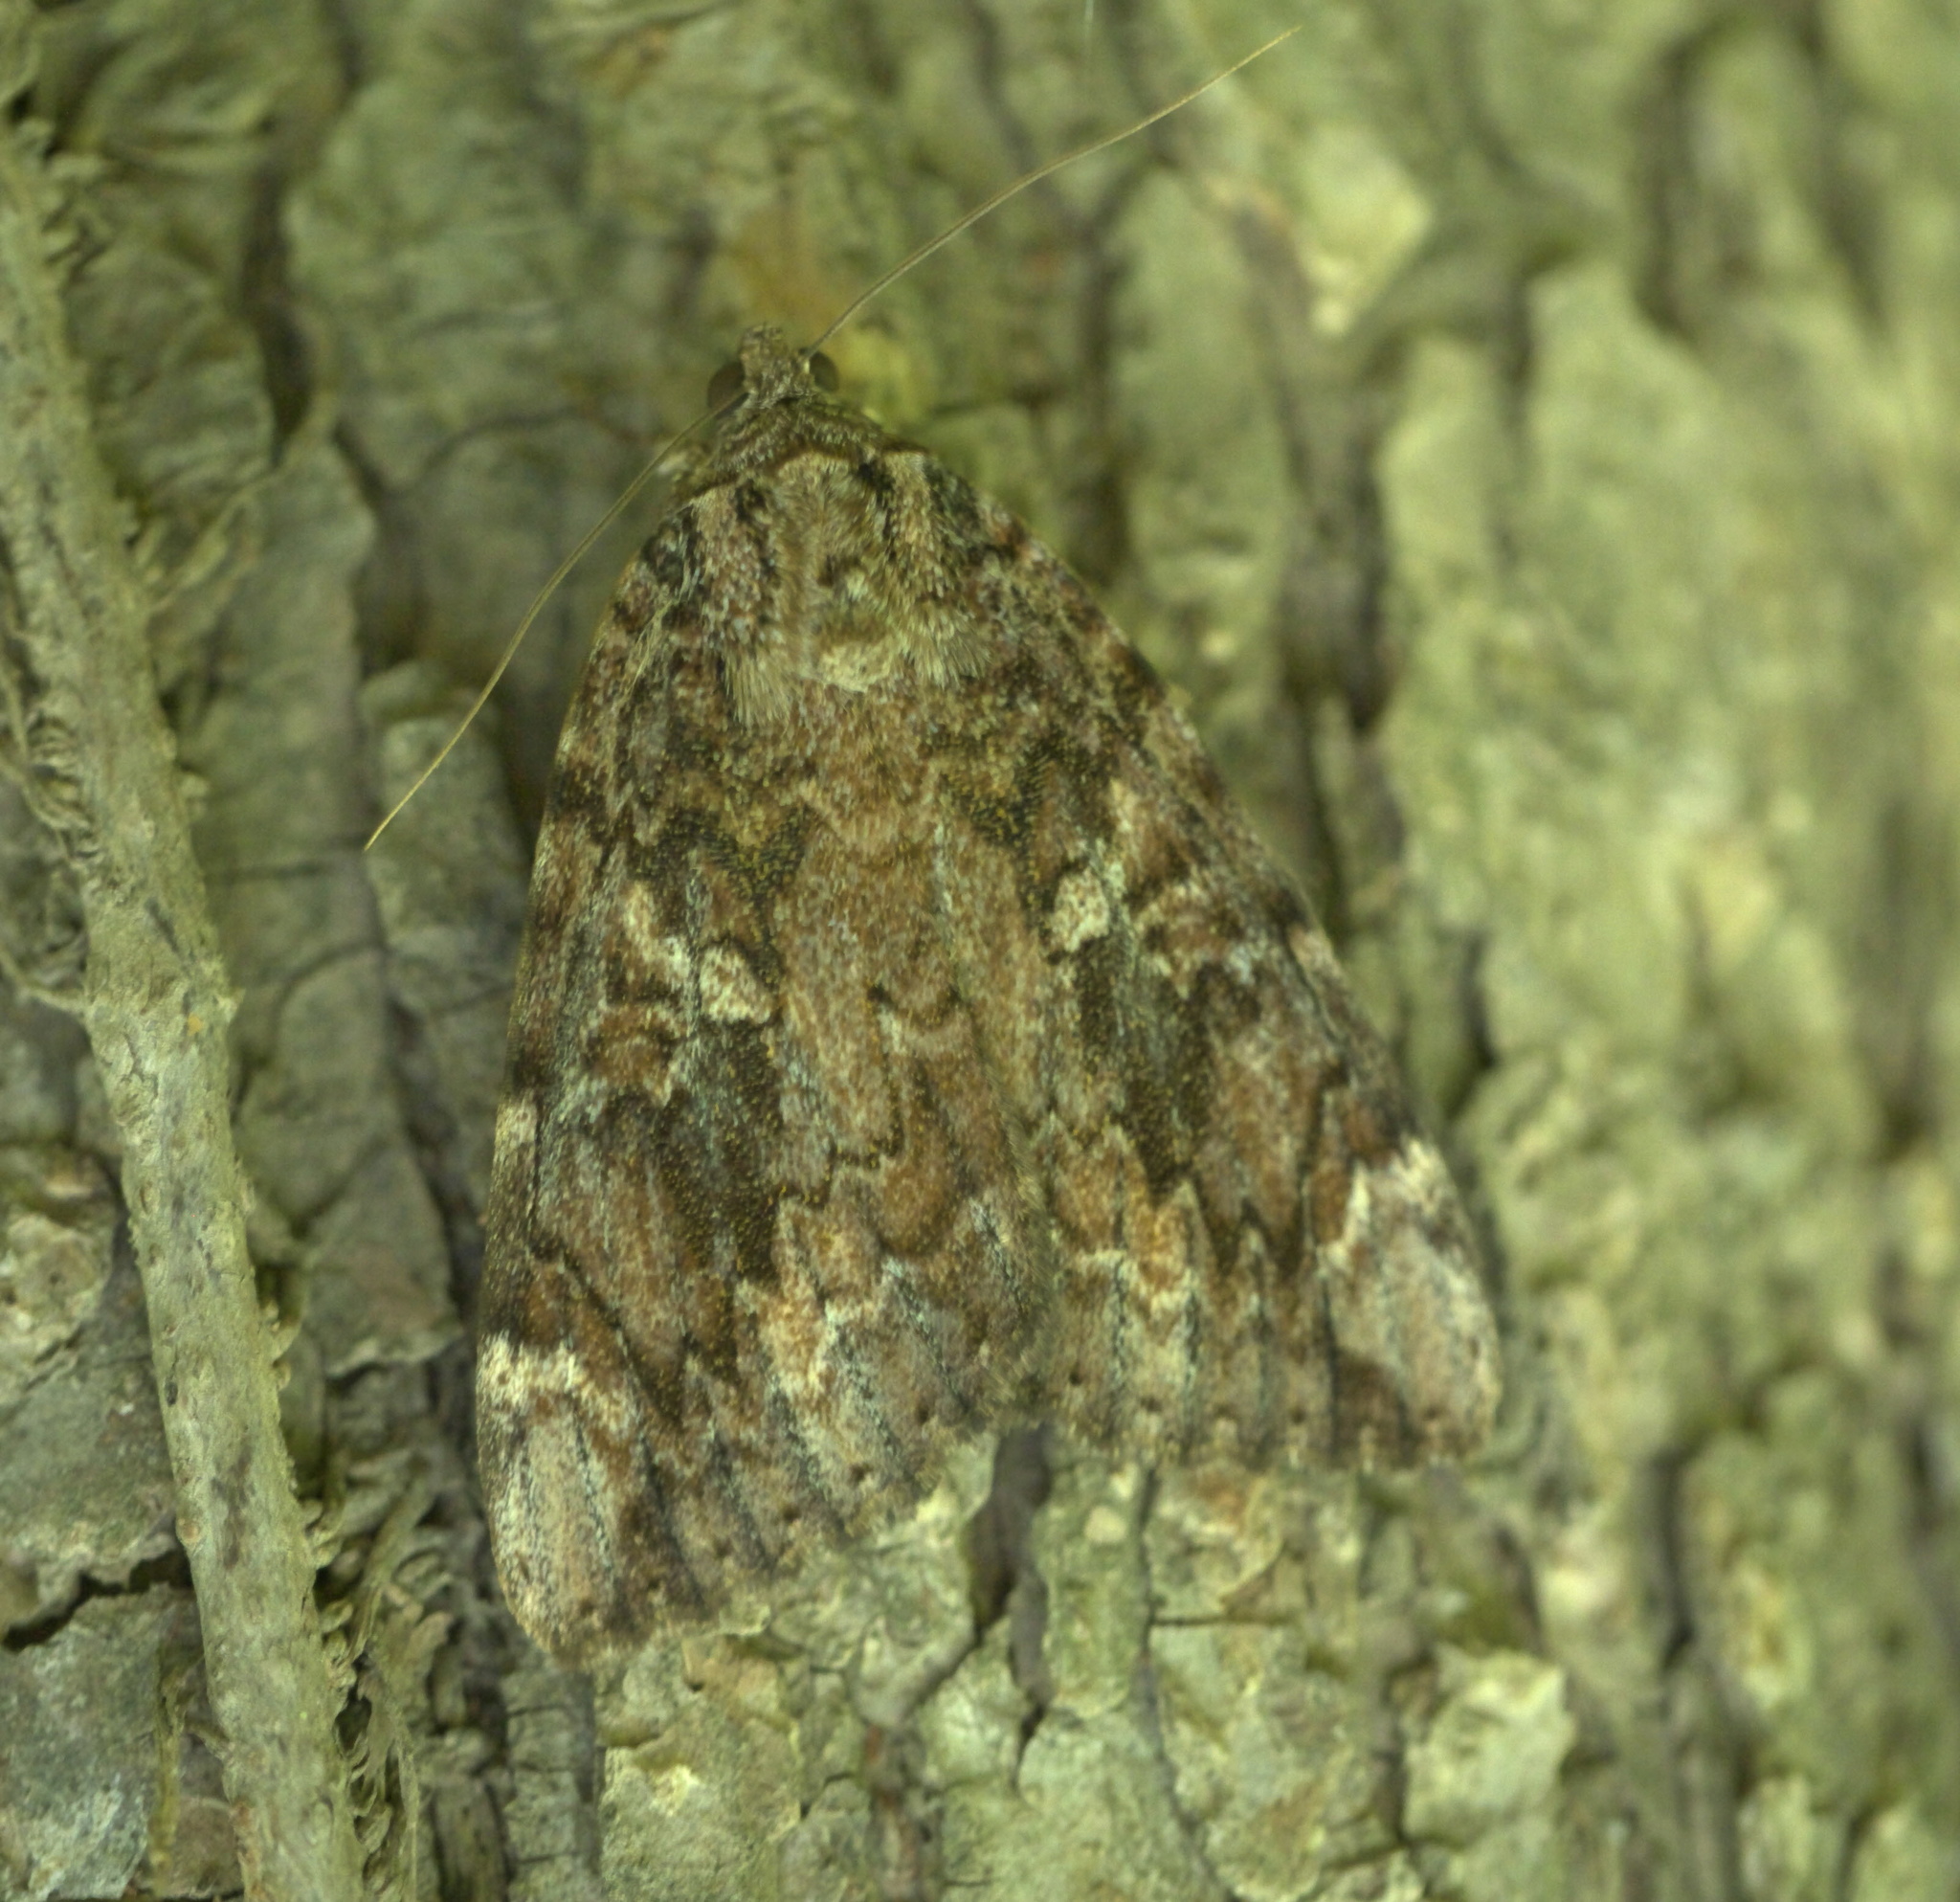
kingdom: Animalia
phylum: Arthropoda
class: Insecta
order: Lepidoptera
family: Erebidae
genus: Catocala
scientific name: Catocala innubens
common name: Betrothed underwing
